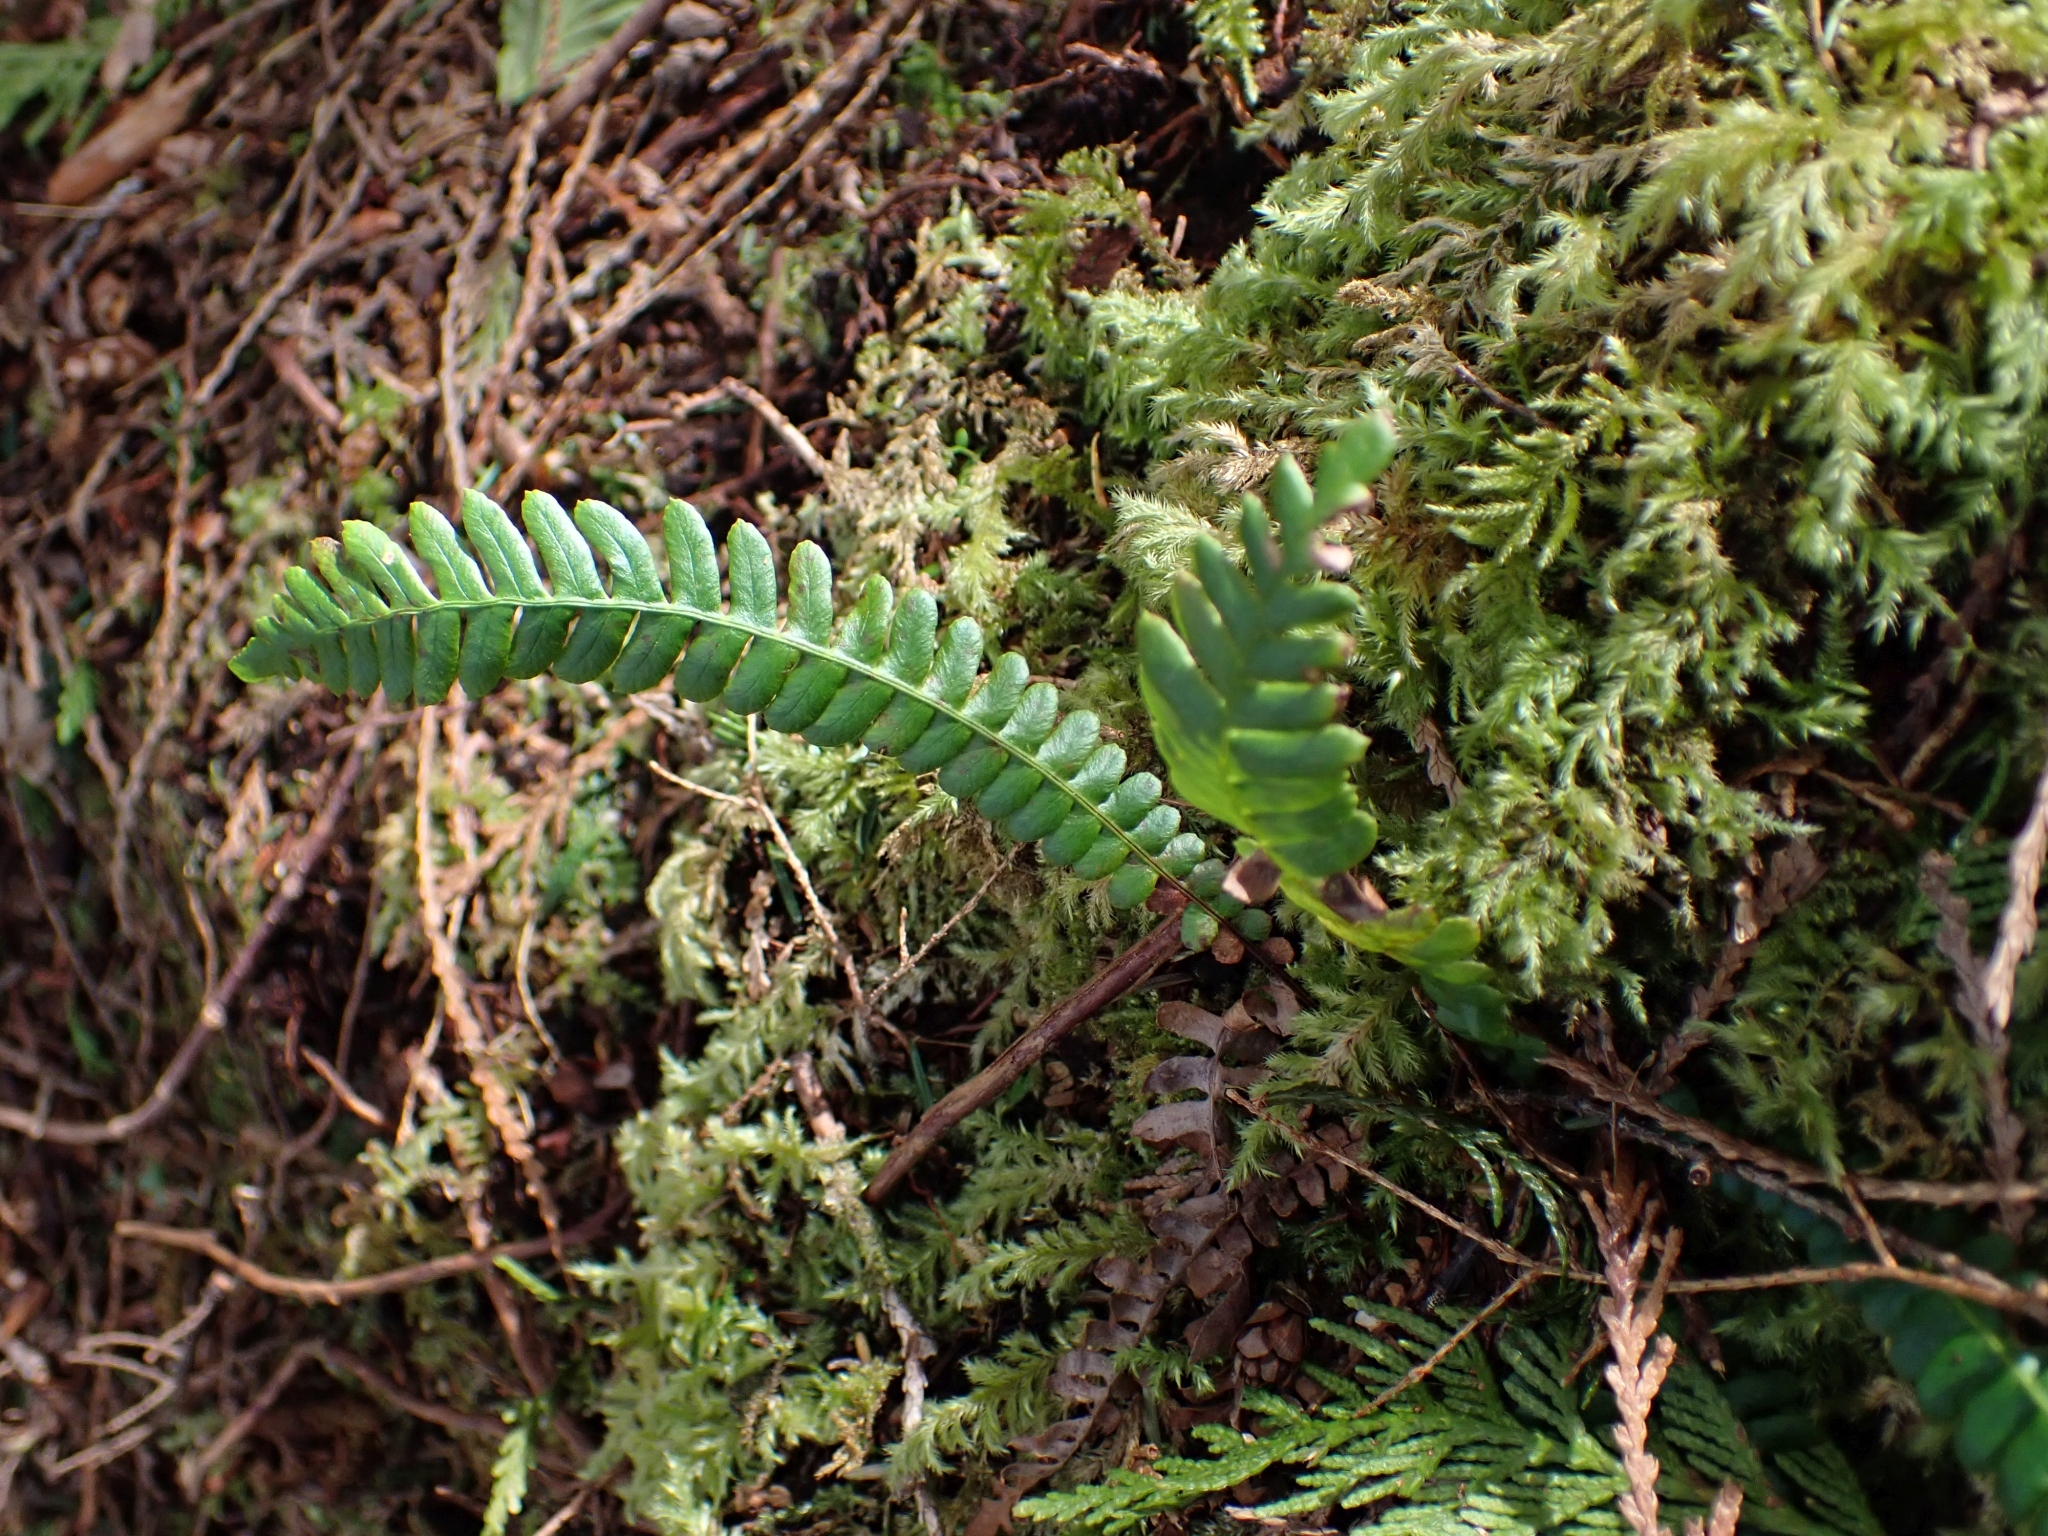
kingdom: Plantae
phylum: Tracheophyta
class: Polypodiopsida
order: Polypodiales
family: Blechnaceae
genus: Struthiopteris
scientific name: Struthiopteris spicant
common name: Deer fern
